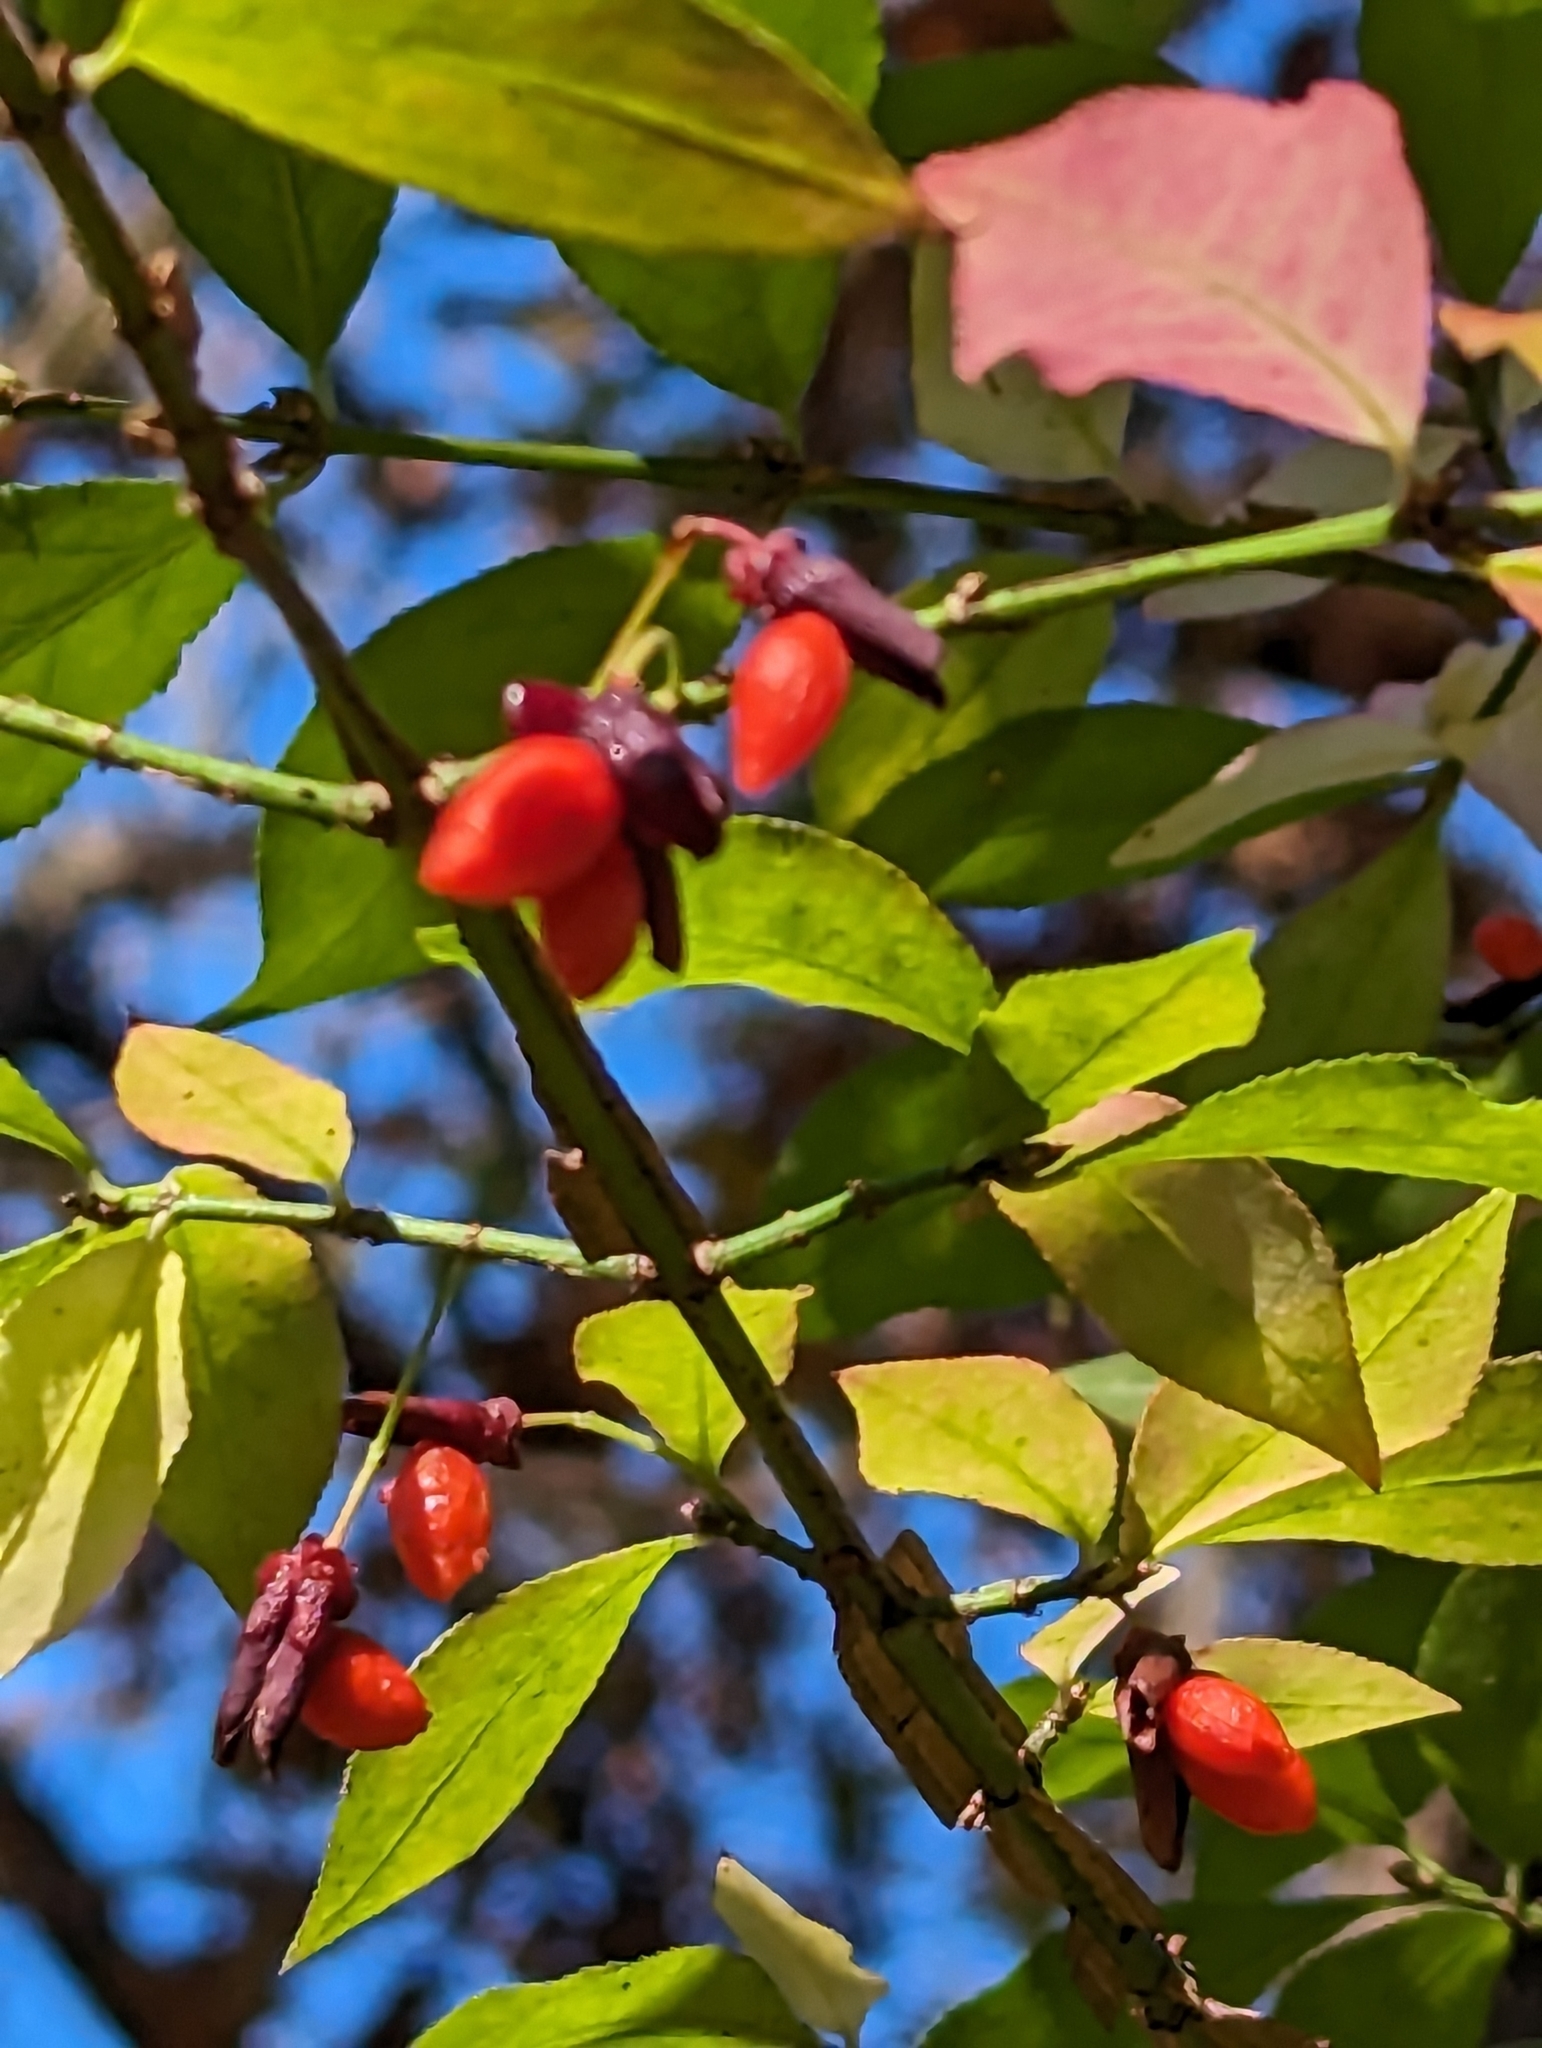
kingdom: Plantae
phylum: Tracheophyta
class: Magnoliopsida
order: Celastrales
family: Celastraceae
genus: Euonymus
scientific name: Euonymus alatus
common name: Winged euonymus
